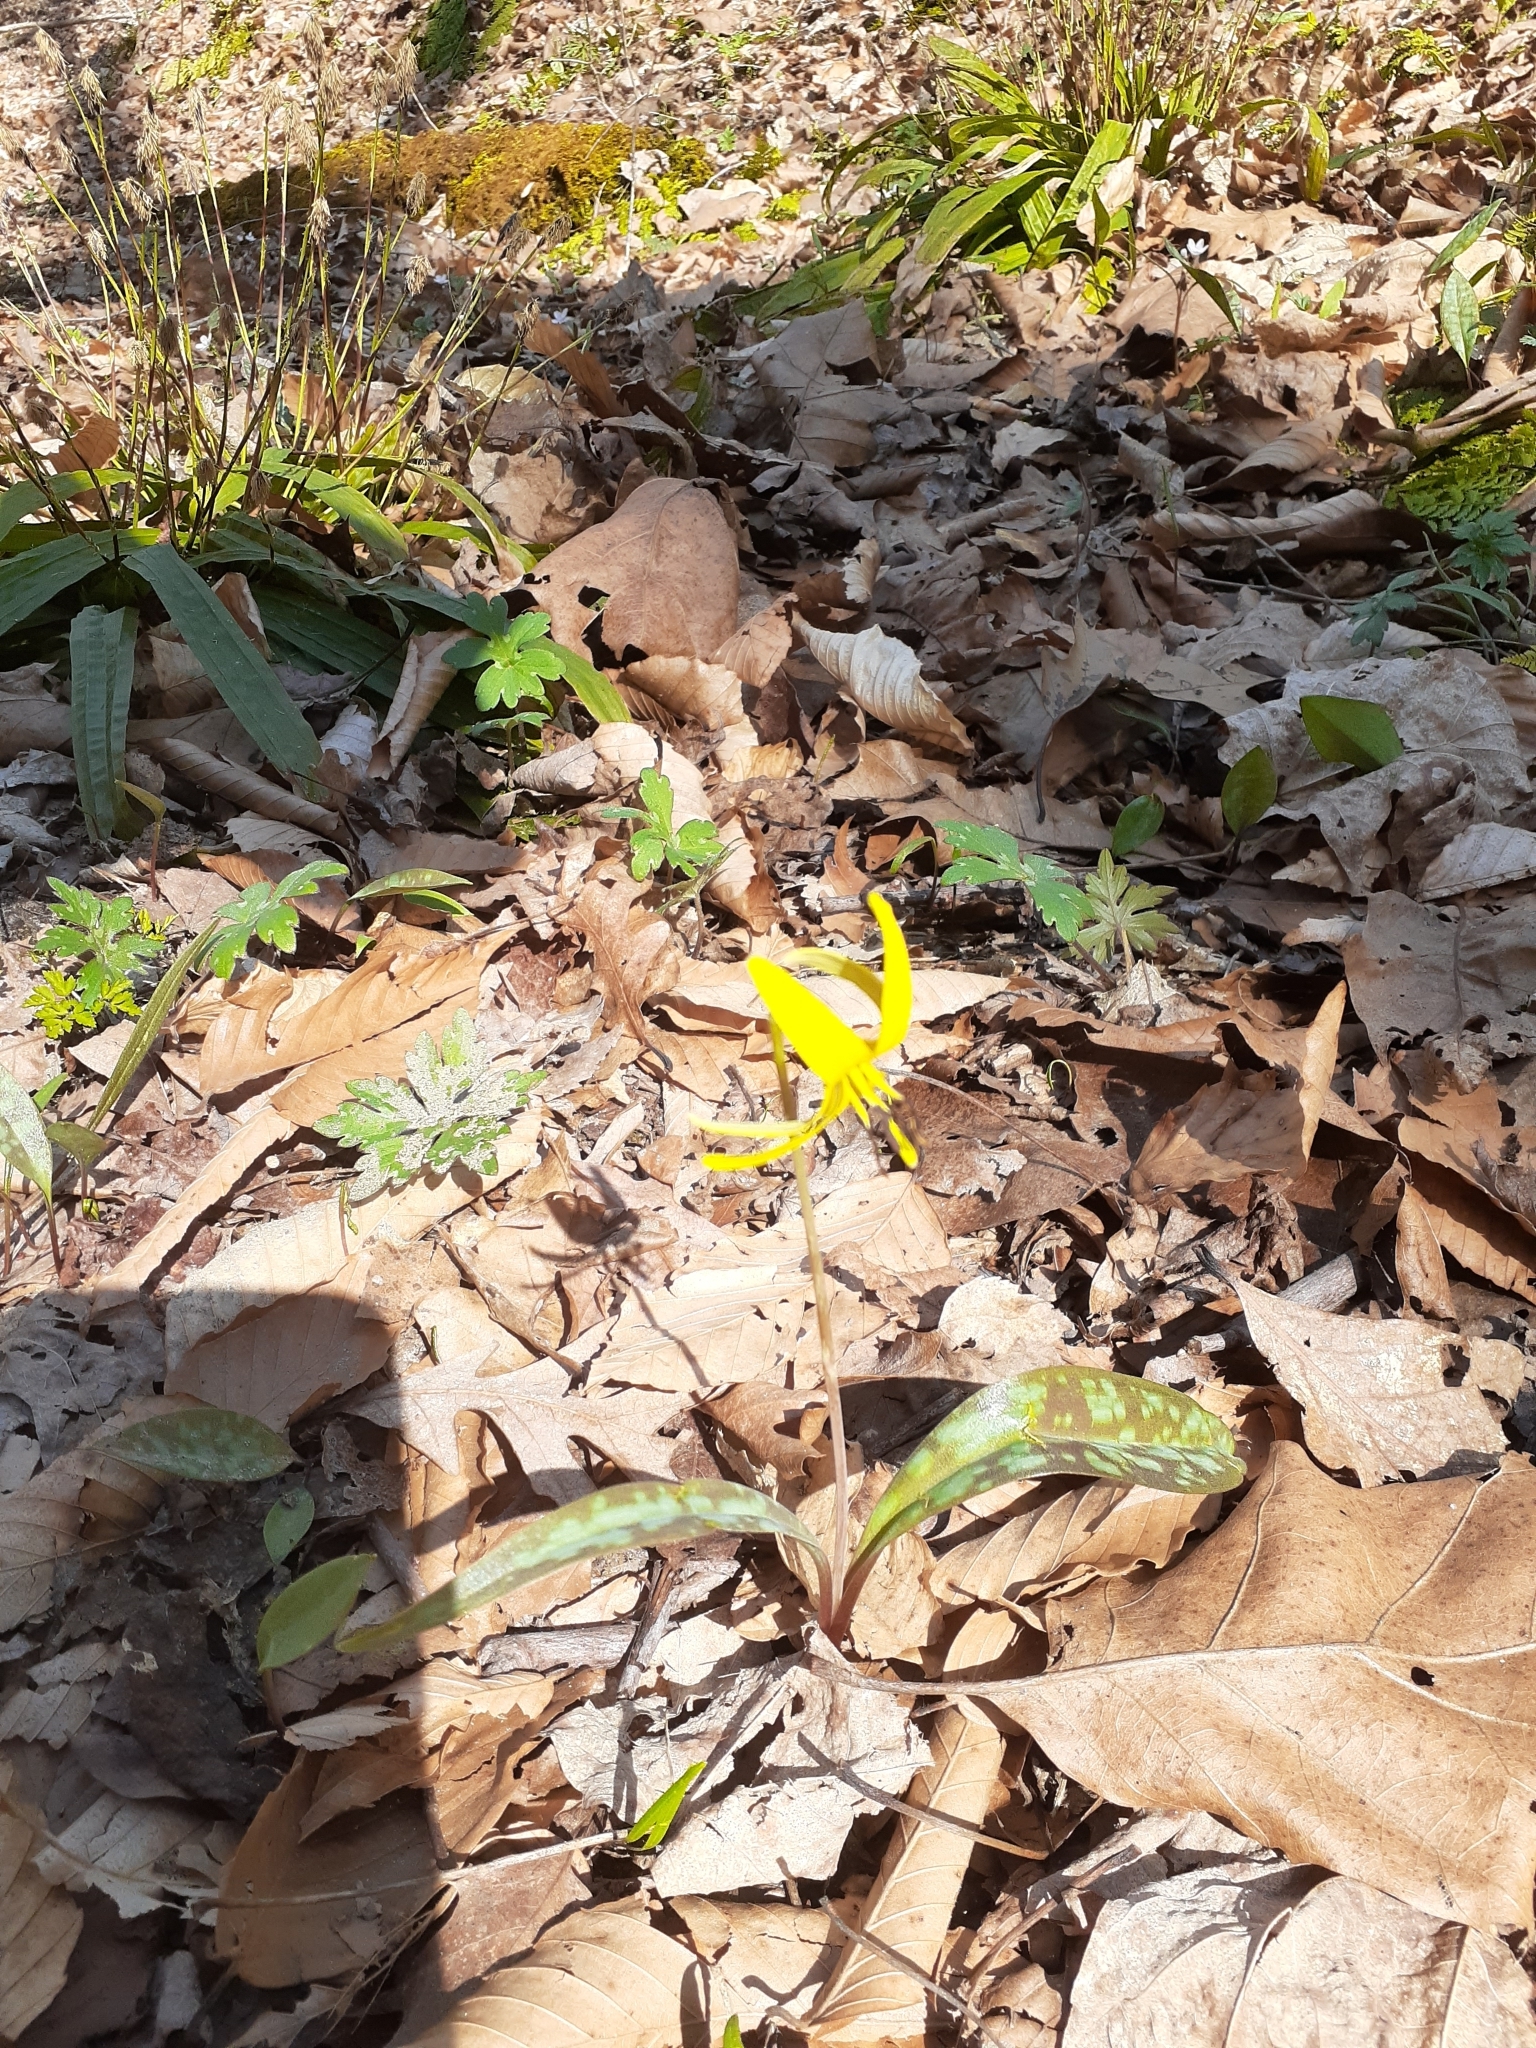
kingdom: Plantae
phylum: Tracheophyta
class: Liliopsida
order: Liliales
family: Liliaceae
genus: Erythronium
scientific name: Erythronium americanum
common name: Yellow adder's-tongue
